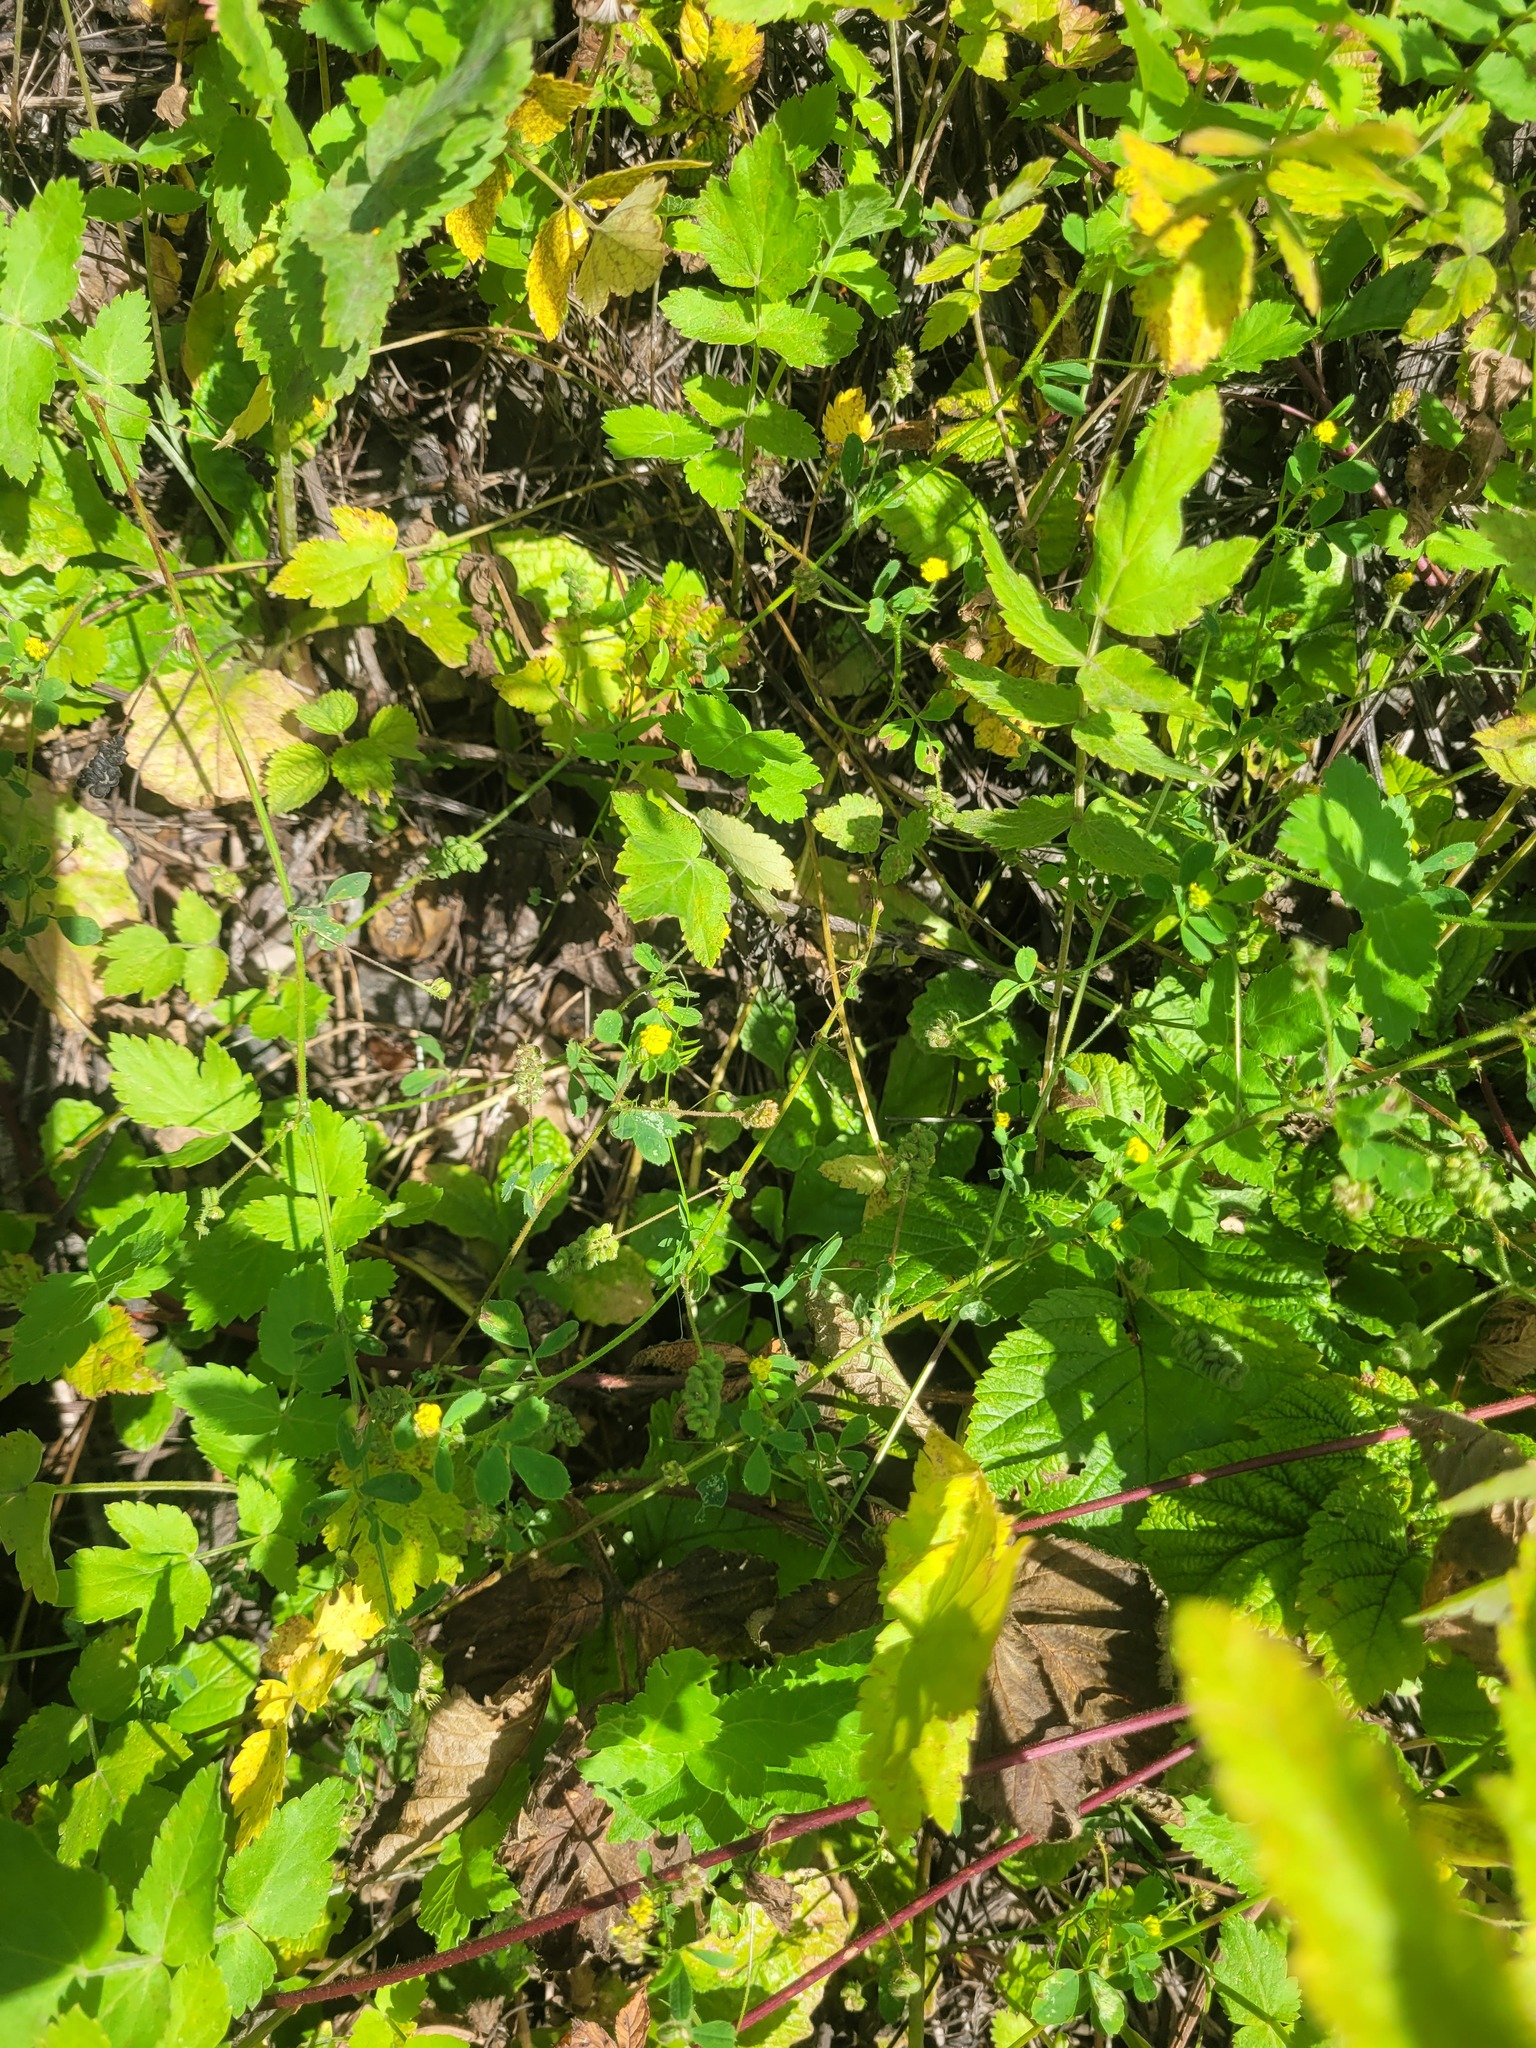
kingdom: Plantae
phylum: Tracheophyta
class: Magnoliopsida
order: Fabales
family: Fabaceae
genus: Medicago
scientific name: Medicago lupulina
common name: Black medick
